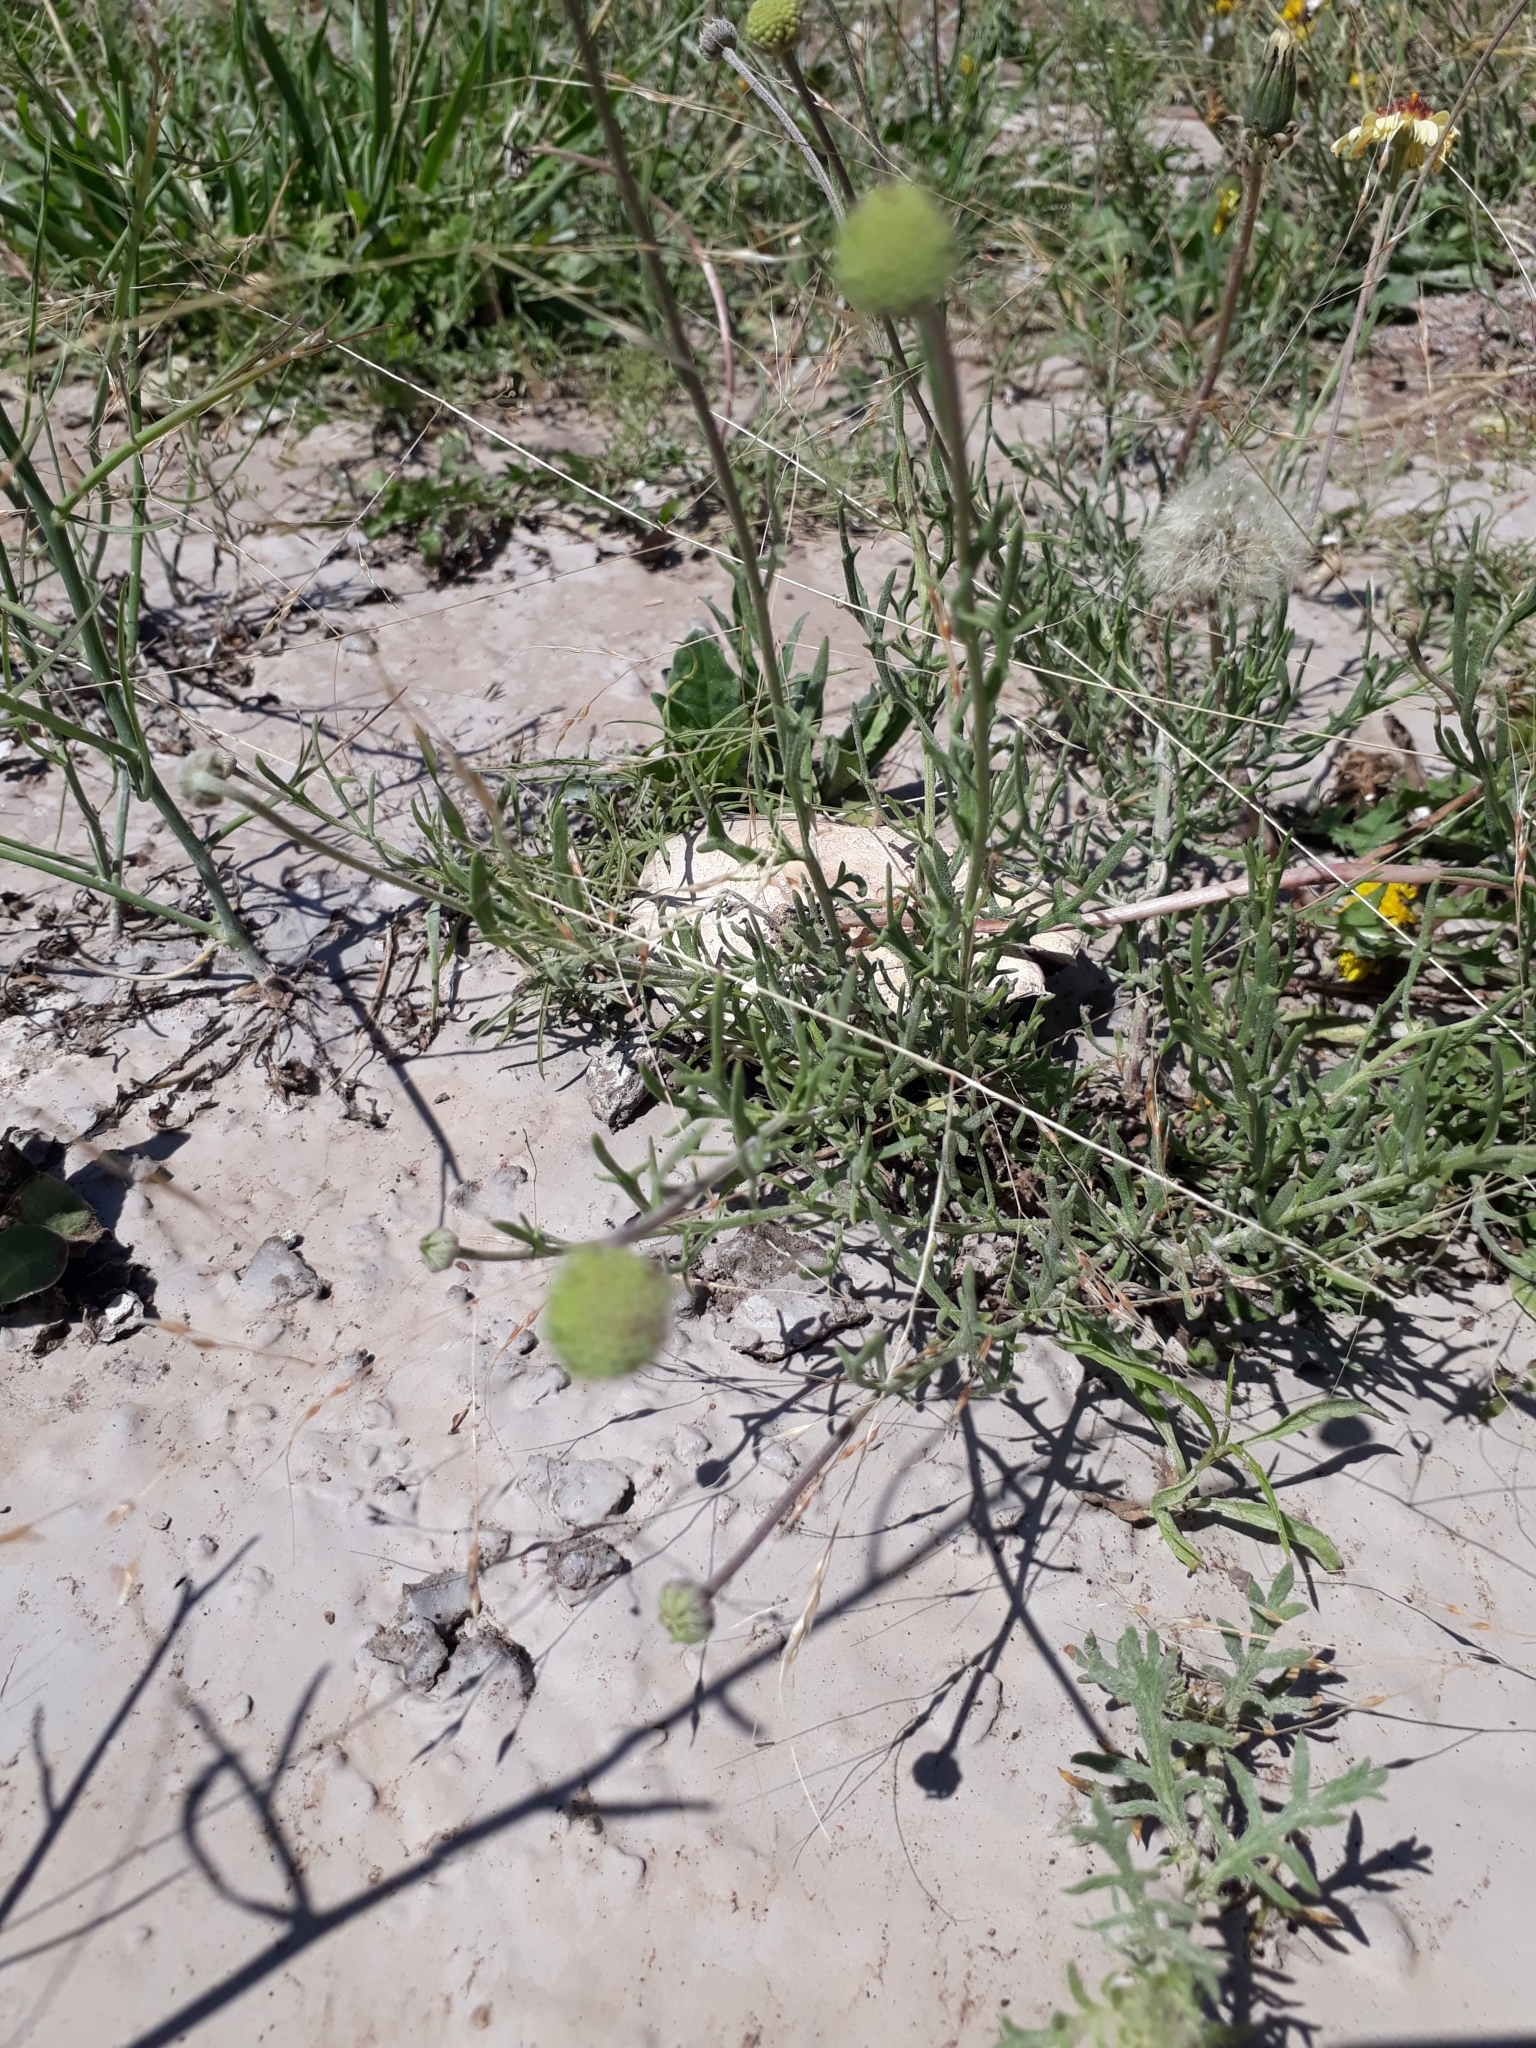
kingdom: Plantae
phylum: Tracheophyta
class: Magnoliopsida
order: Asterales
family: Asteraceae
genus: Helenium
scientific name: Helenium uniflorum
